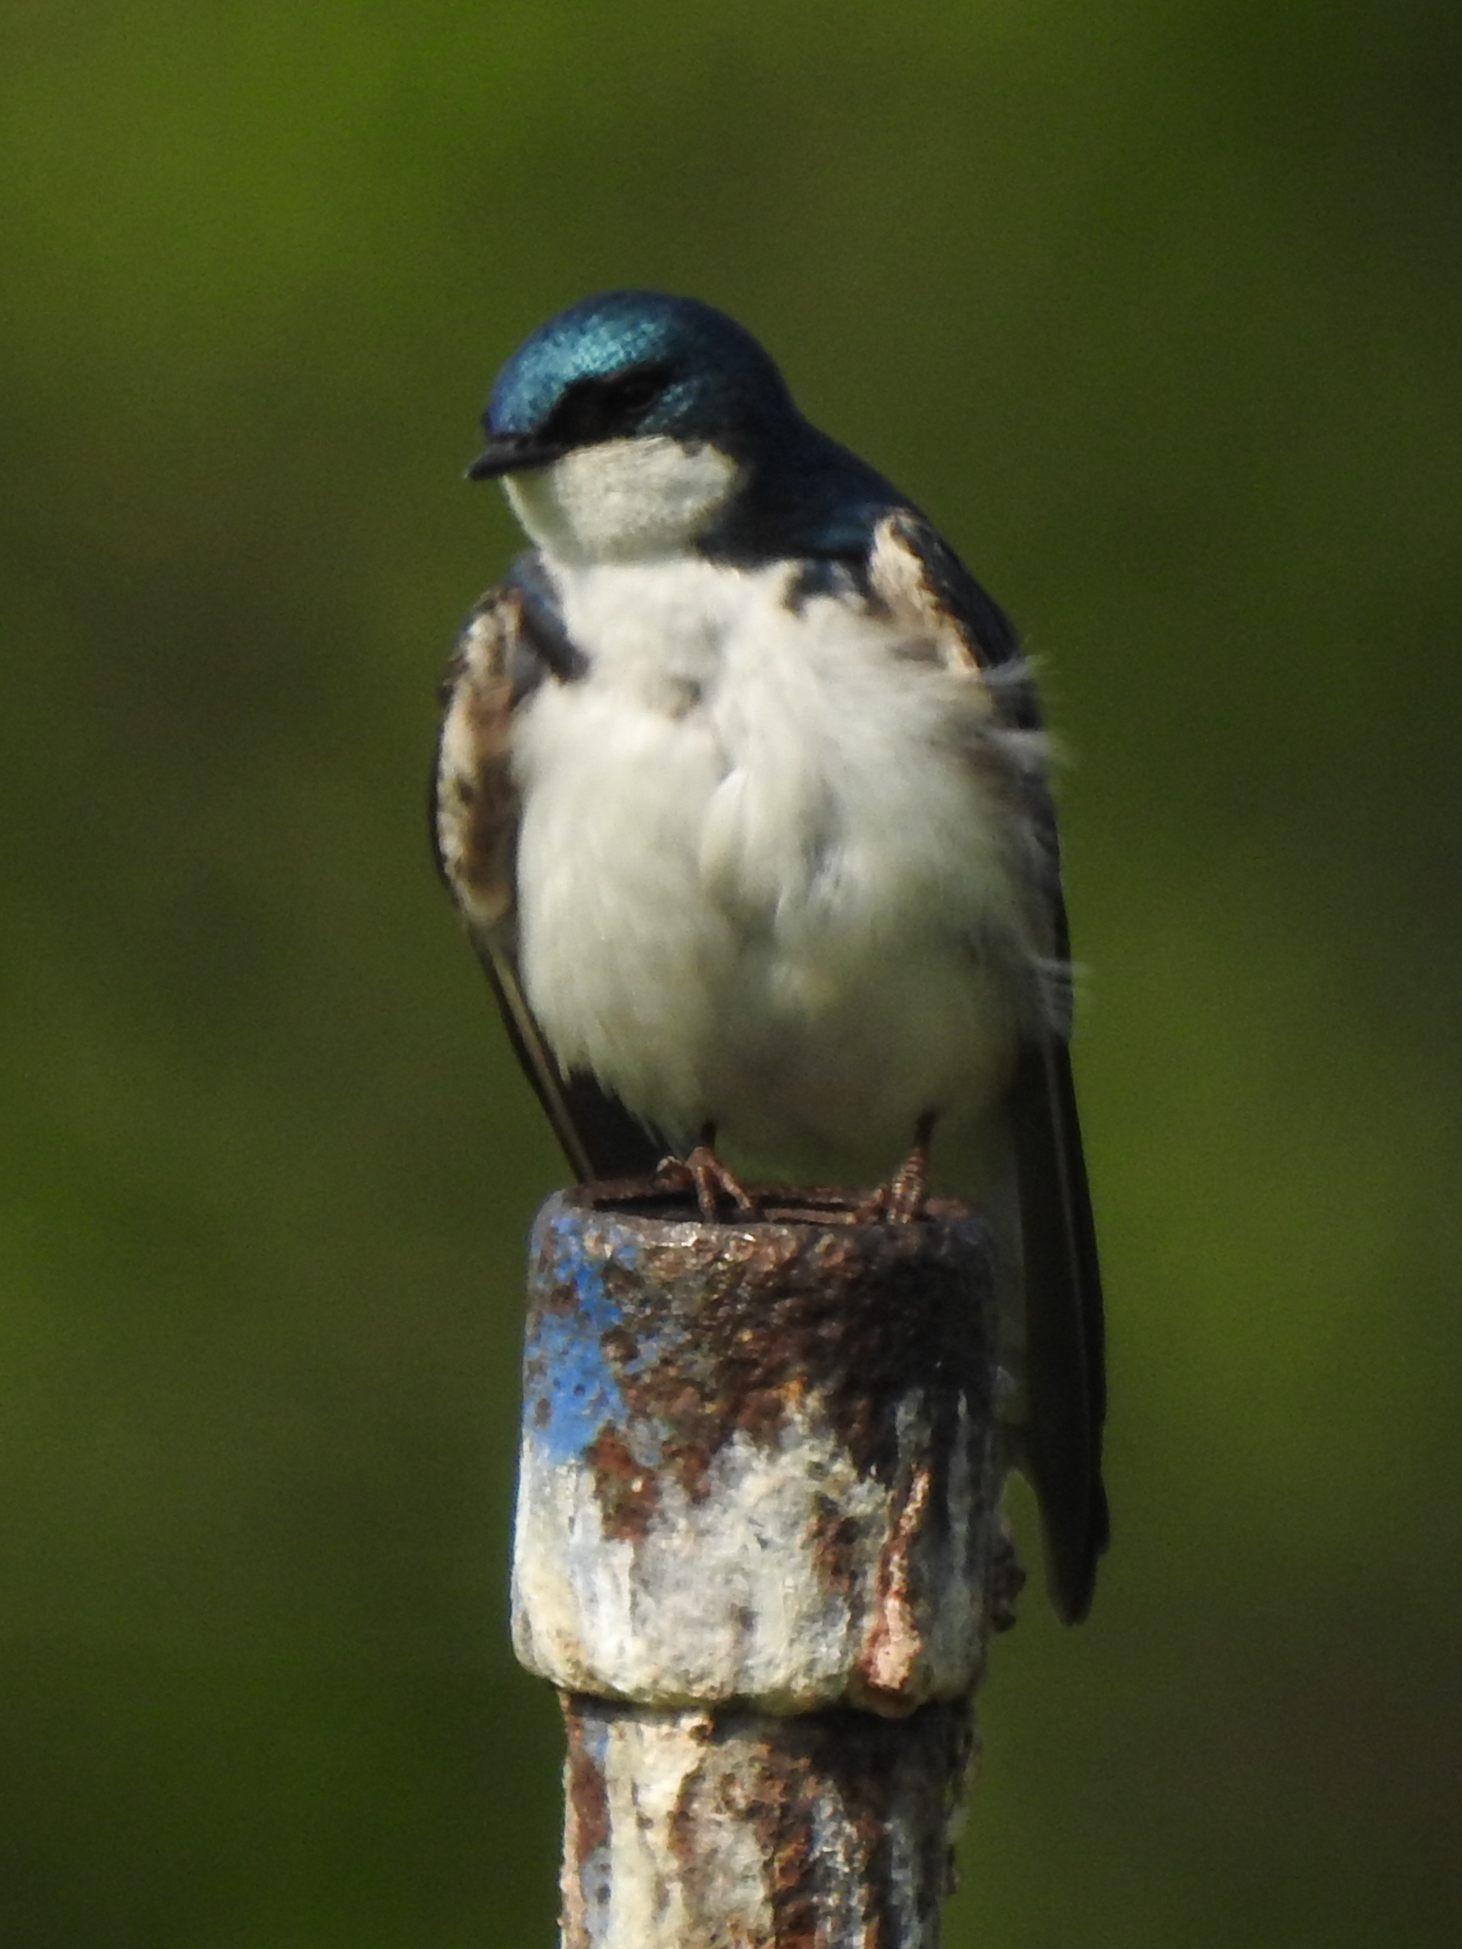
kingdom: Animalia
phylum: Chordata
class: Aves
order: Passeriformes
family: Hirundinidae
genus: Tachycineta
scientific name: Tachycineta bicolor
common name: Tree swallow
